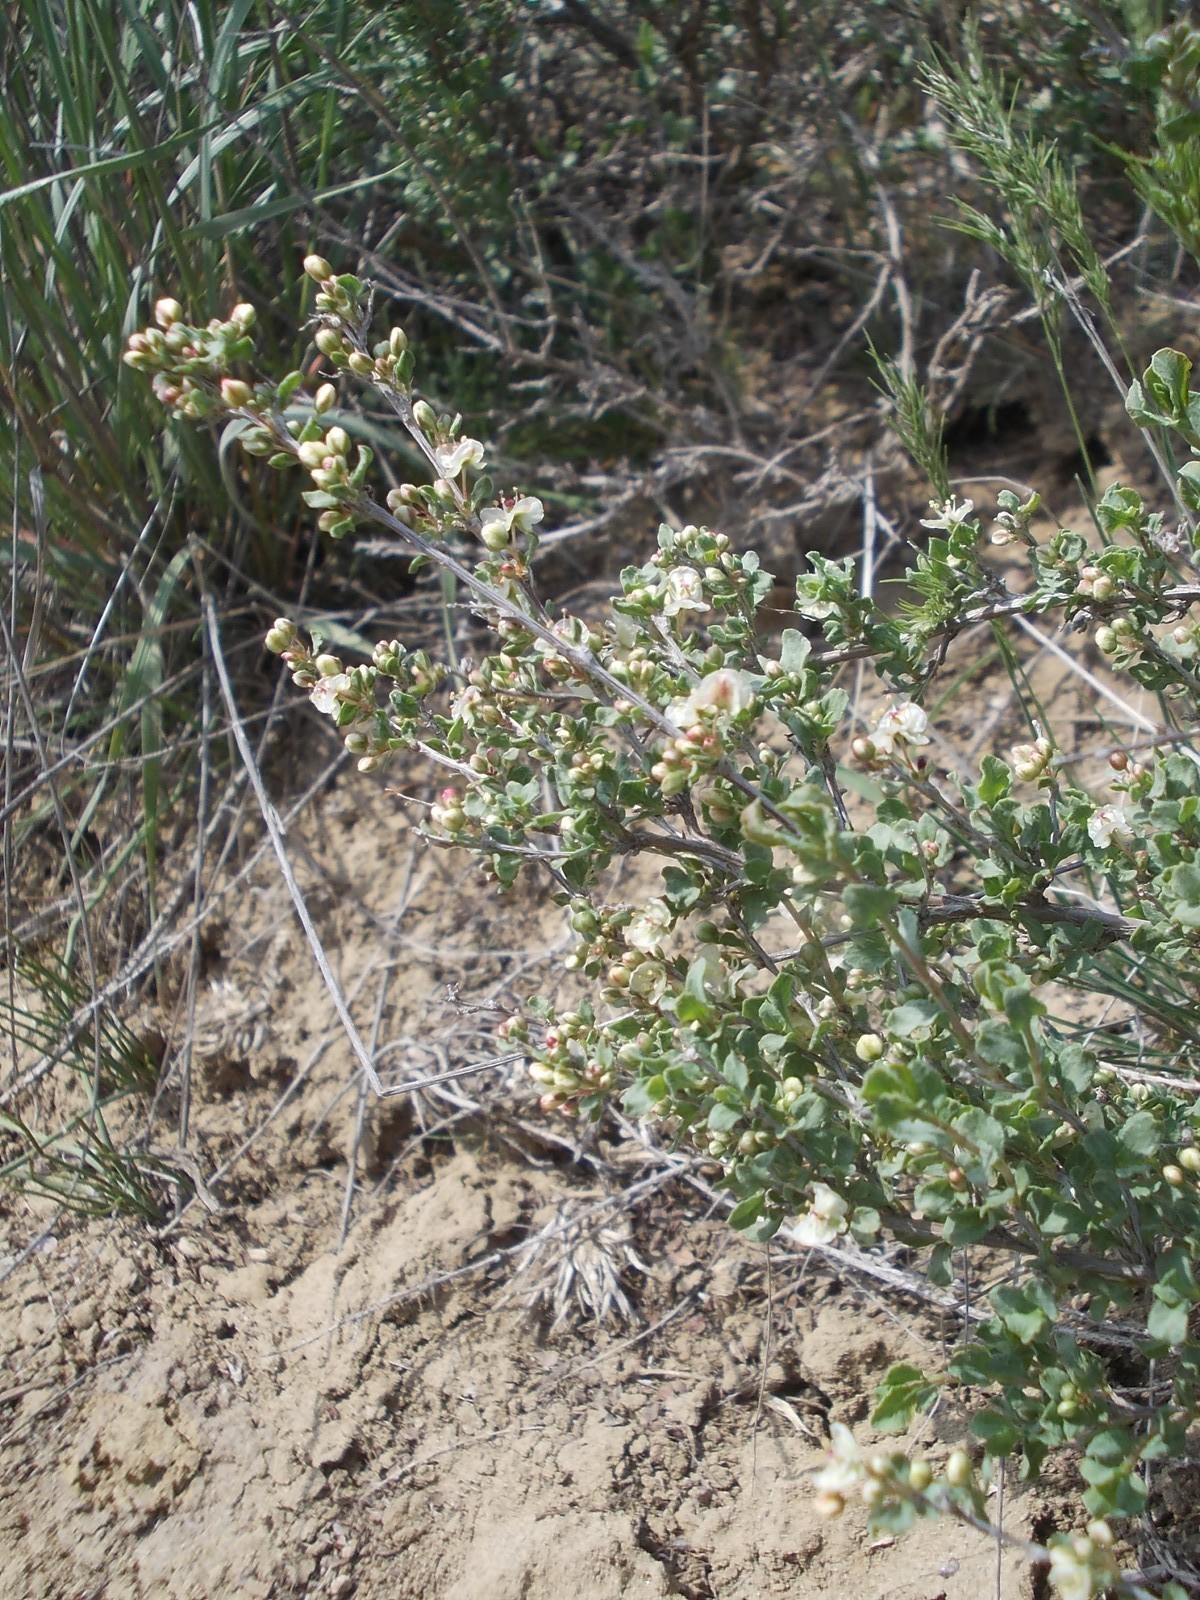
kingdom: Plantae
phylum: Tracheophyta
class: Magnoliopsida
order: Caryophyllales
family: Polygonaceae
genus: Atraphaxis
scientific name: Atraphaxis replicata
